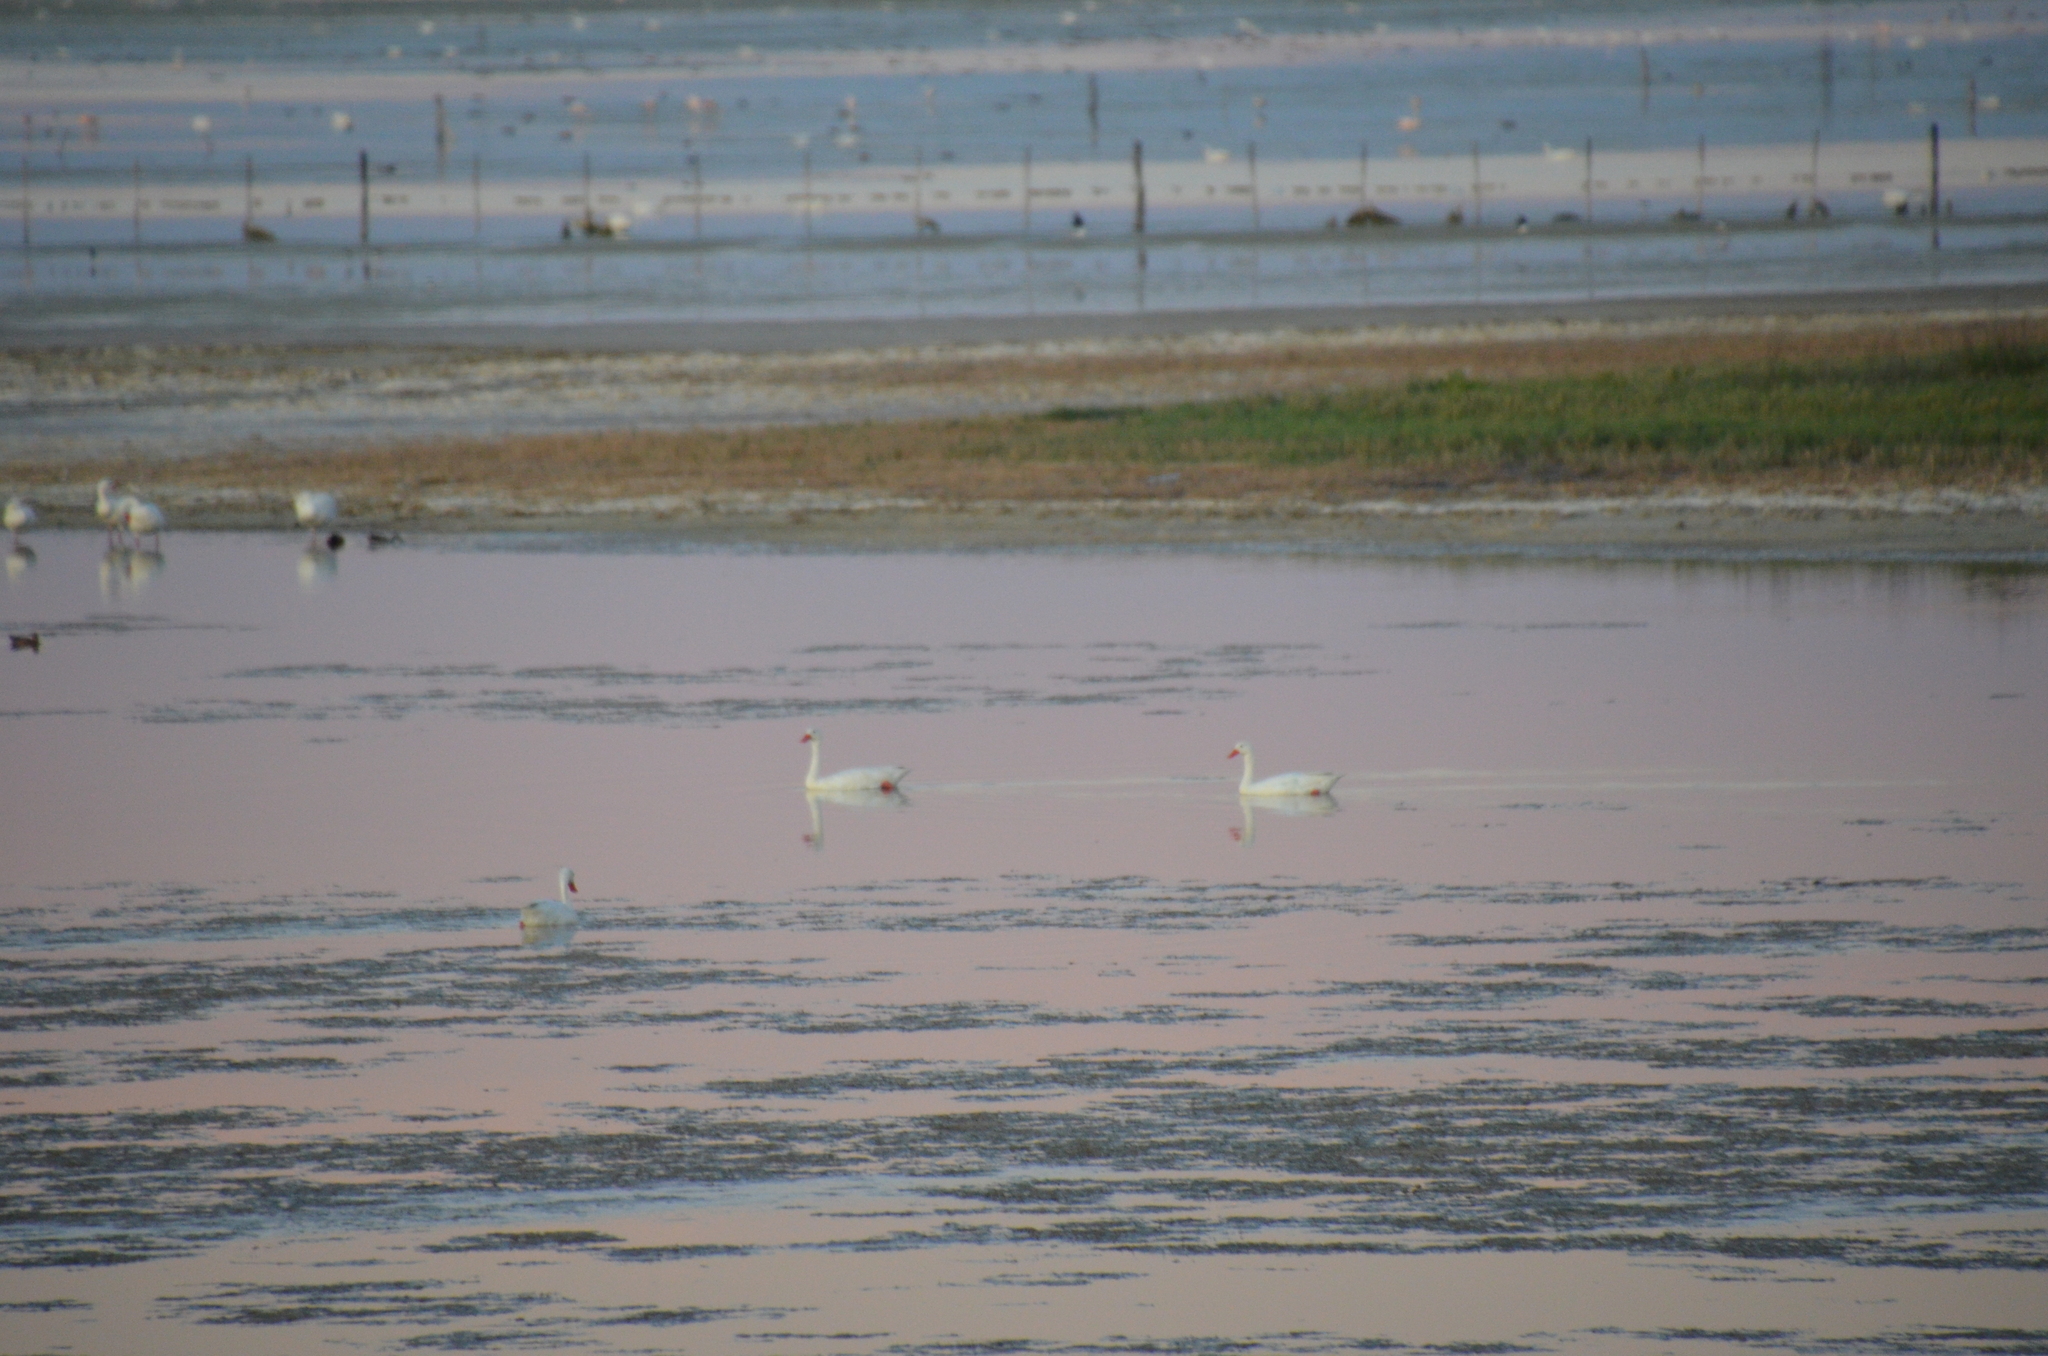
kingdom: Animalia
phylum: Chordata
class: Aves
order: Anseriformes
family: Anatidae
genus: Coscoroba
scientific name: Coscoroba coscoroba
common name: Coscoroba swan
